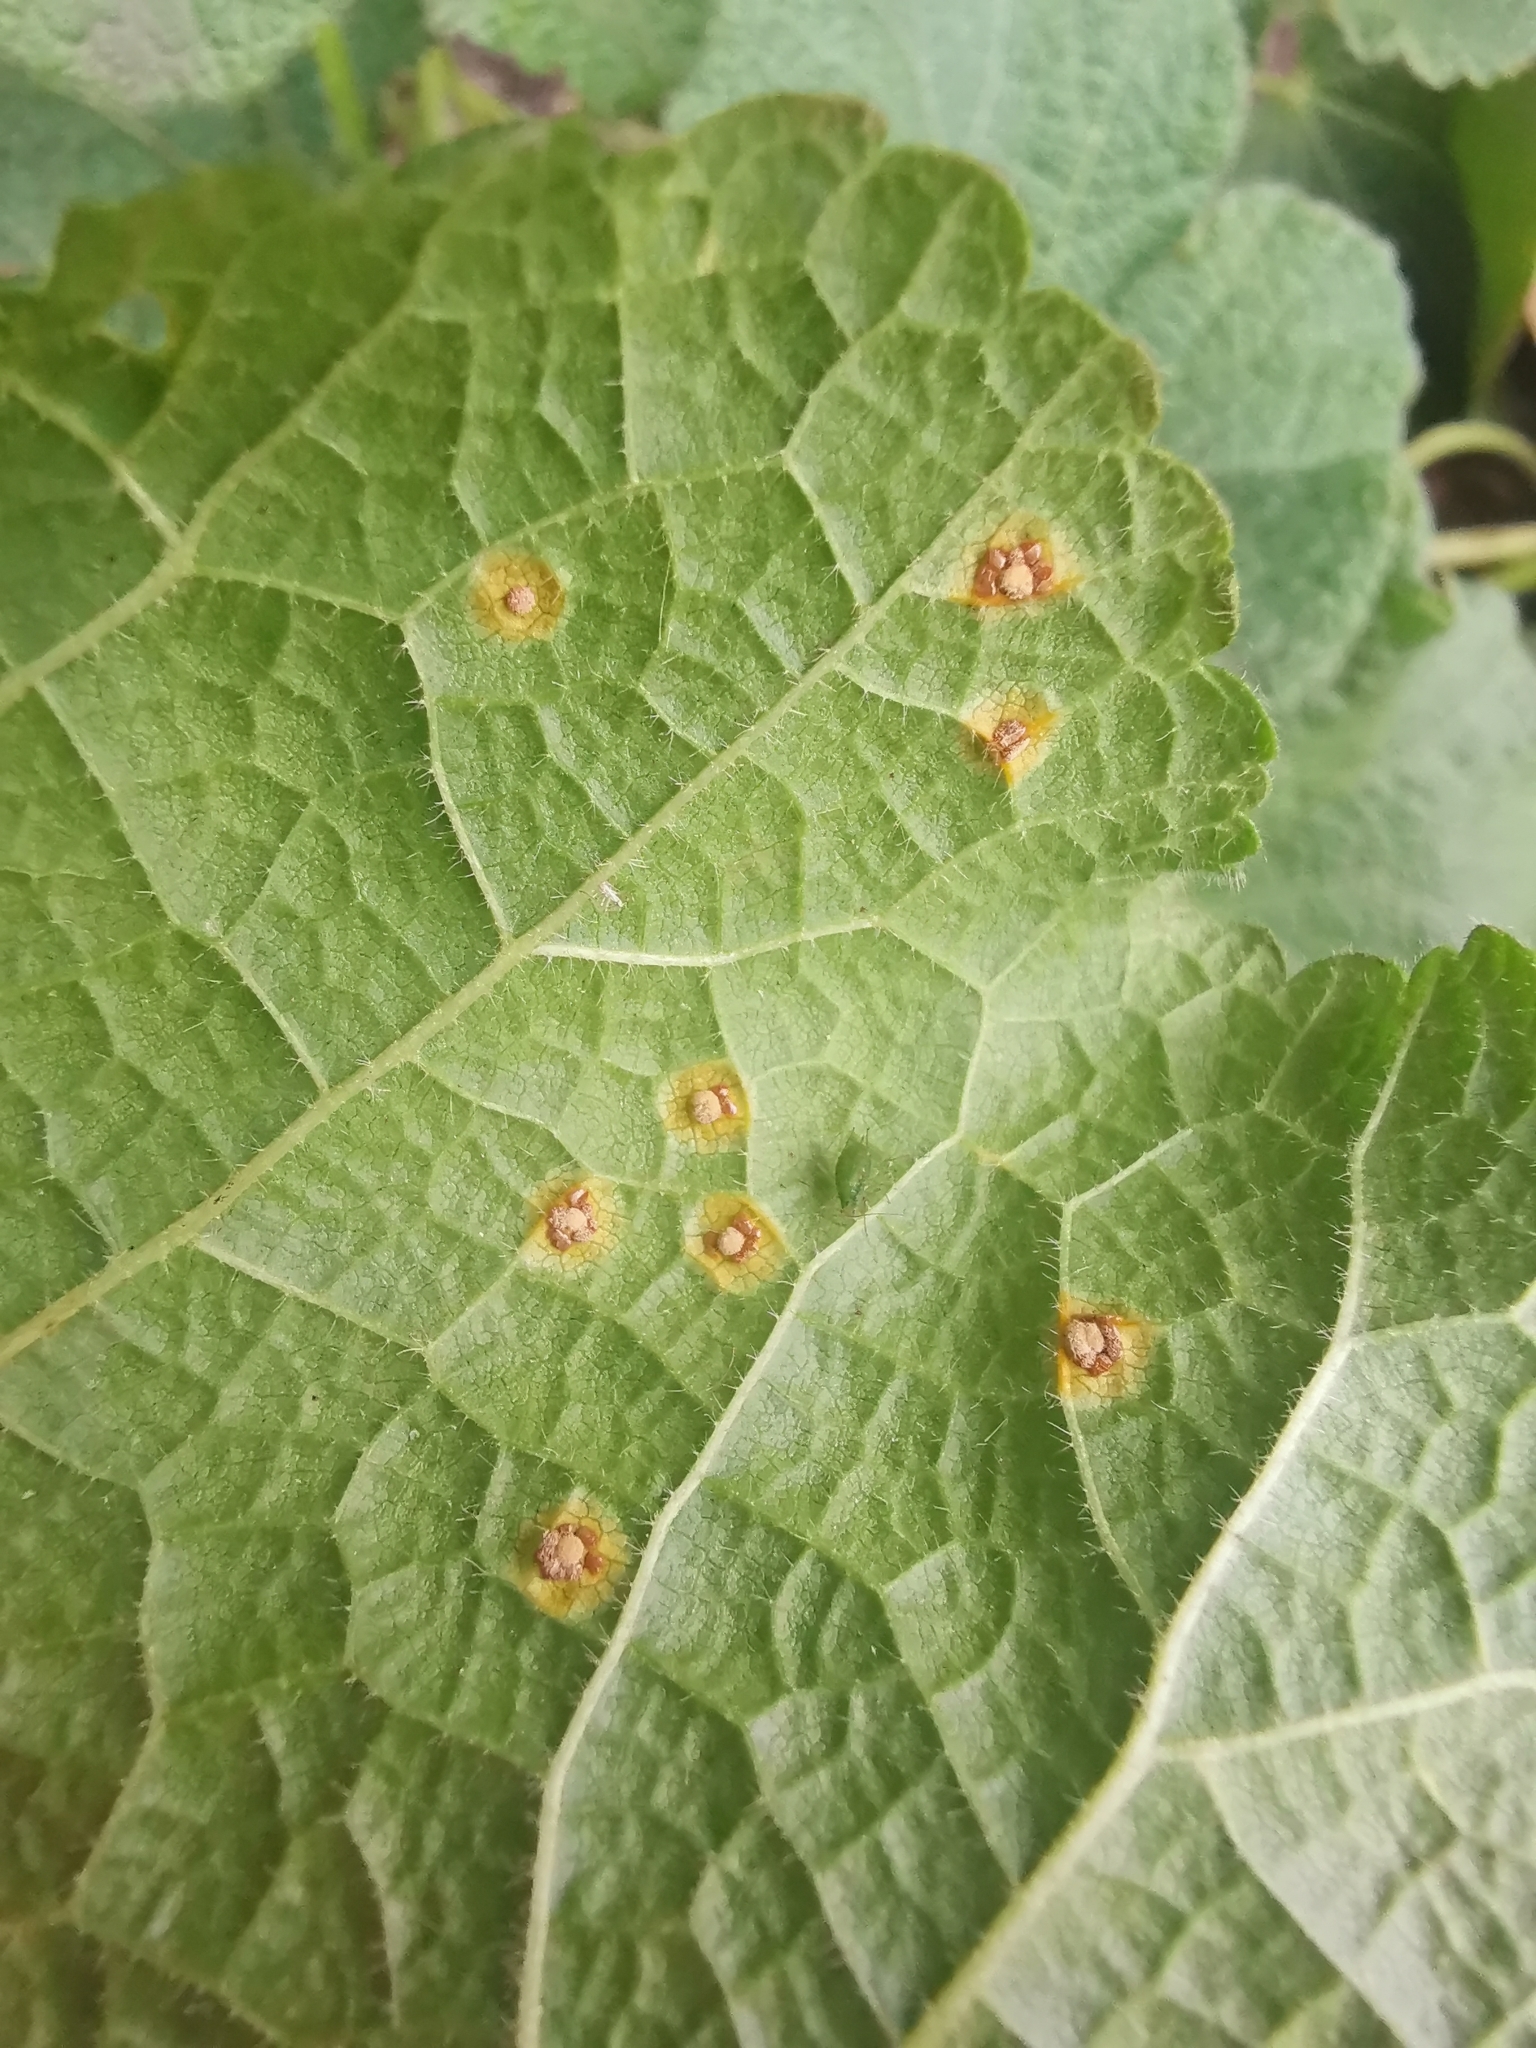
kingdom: Fungi
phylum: Basidiomycota
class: Pucciniomycetes
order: Pucciniales
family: Pucciniaceae
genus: Puccinia
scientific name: Puccinia malvacearum
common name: Hollyhock rust
